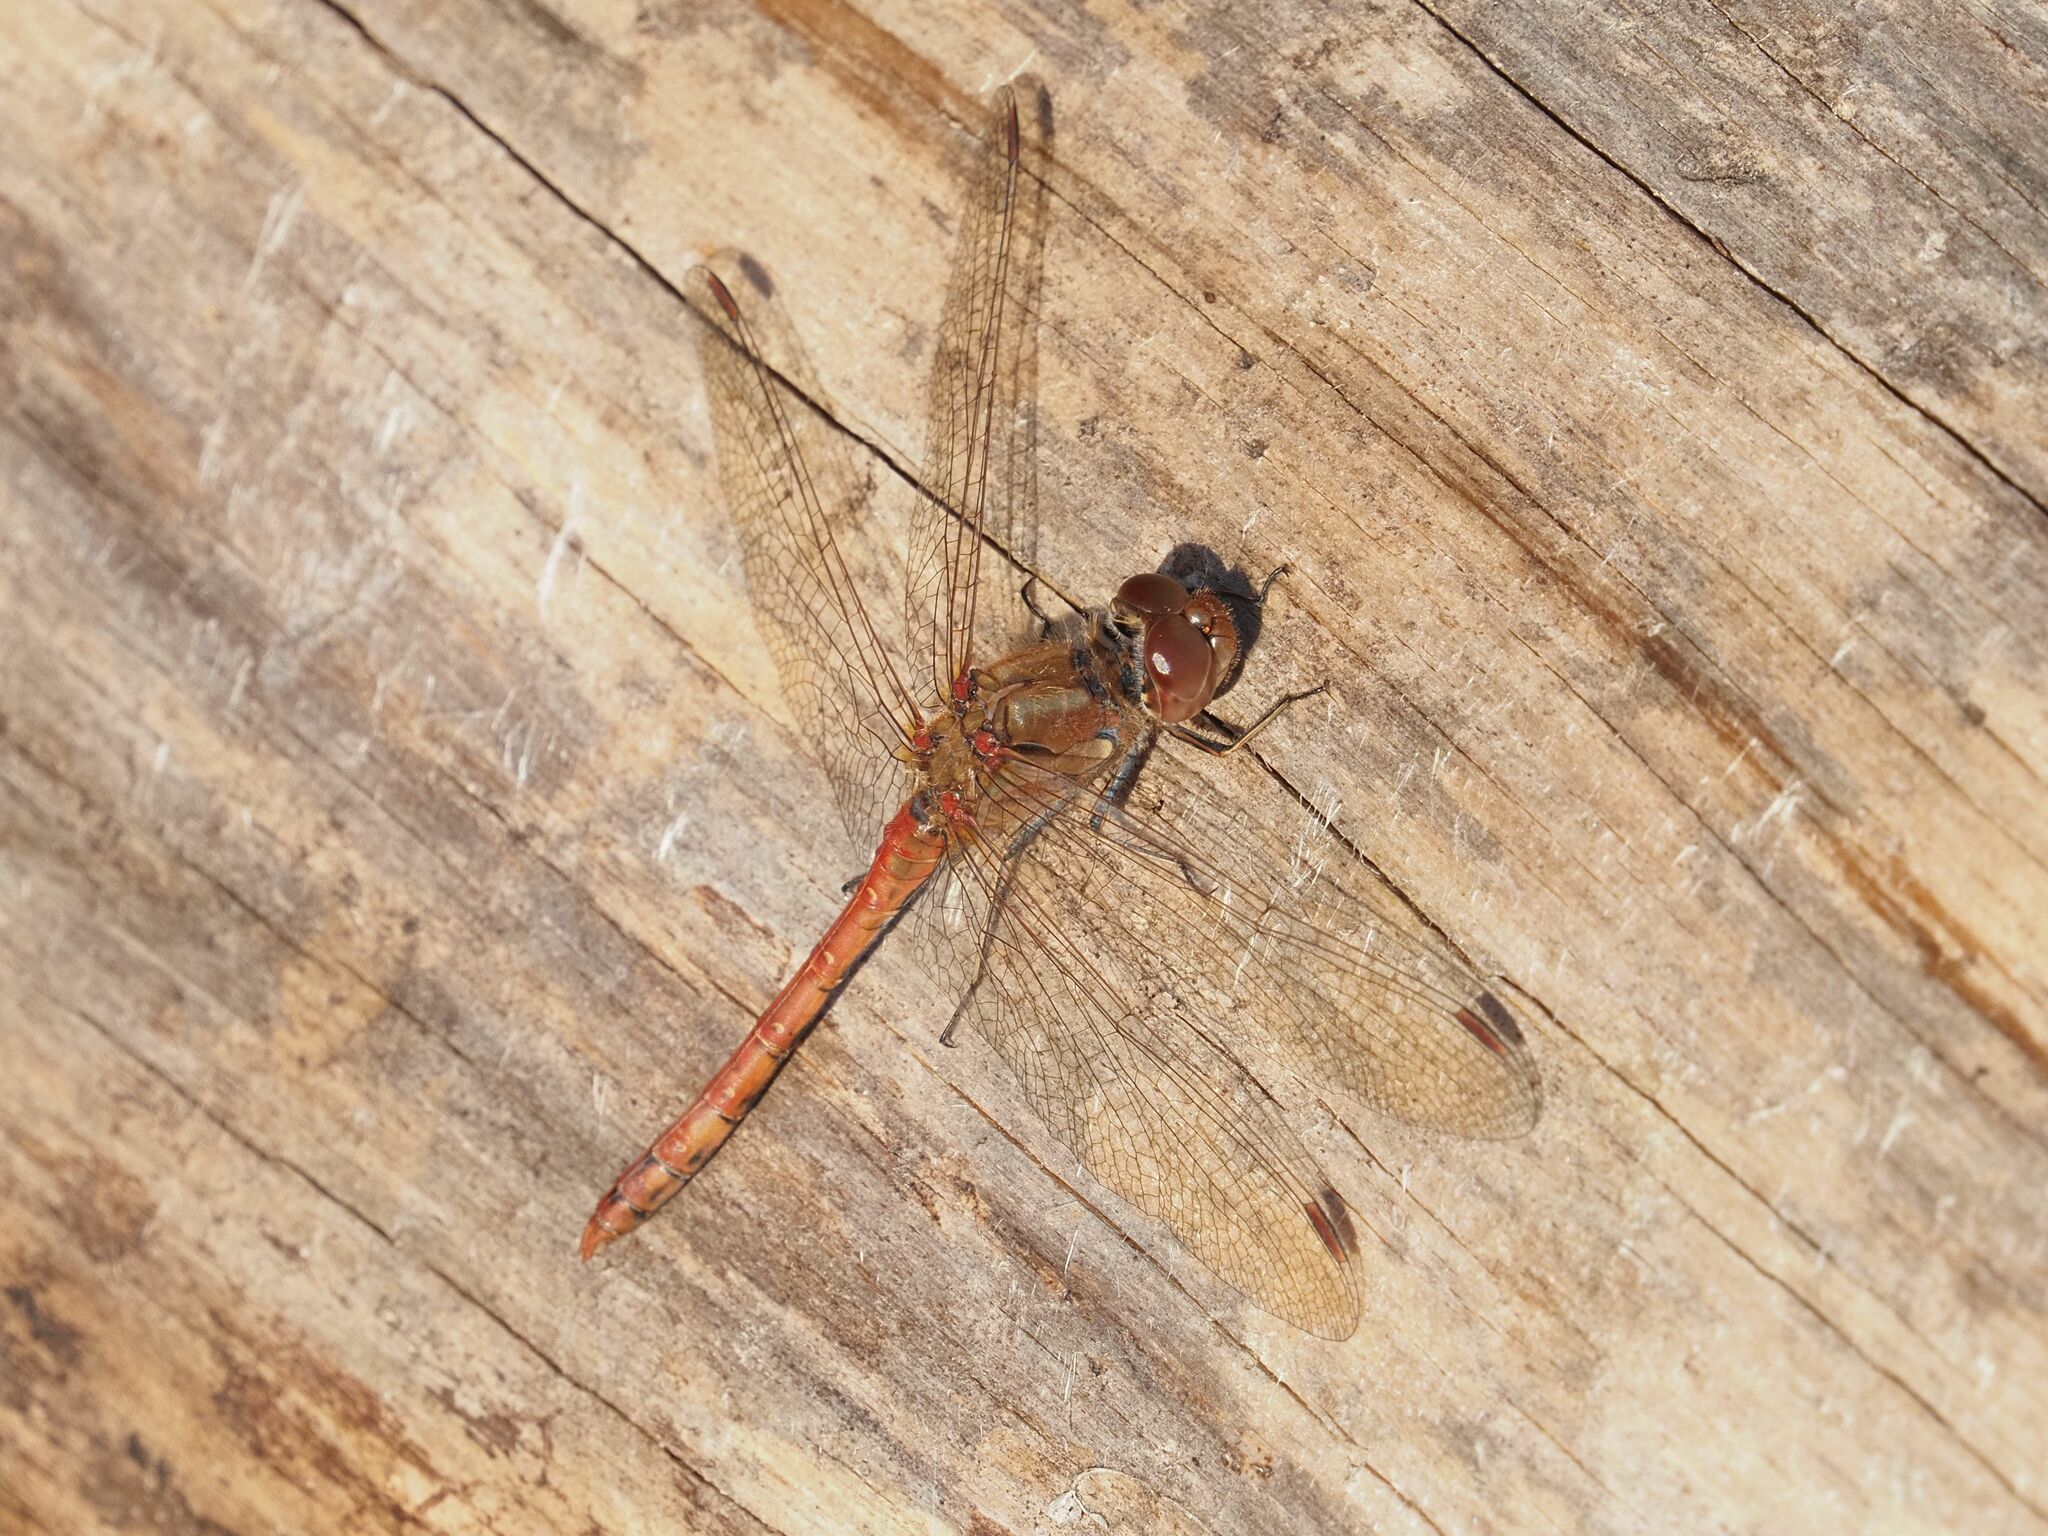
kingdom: Animalia
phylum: Arthropoda
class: Insecta
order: Odonata
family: Libellulidae
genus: Sympetrum
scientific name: Sympetrum striolatum
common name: Common darter
